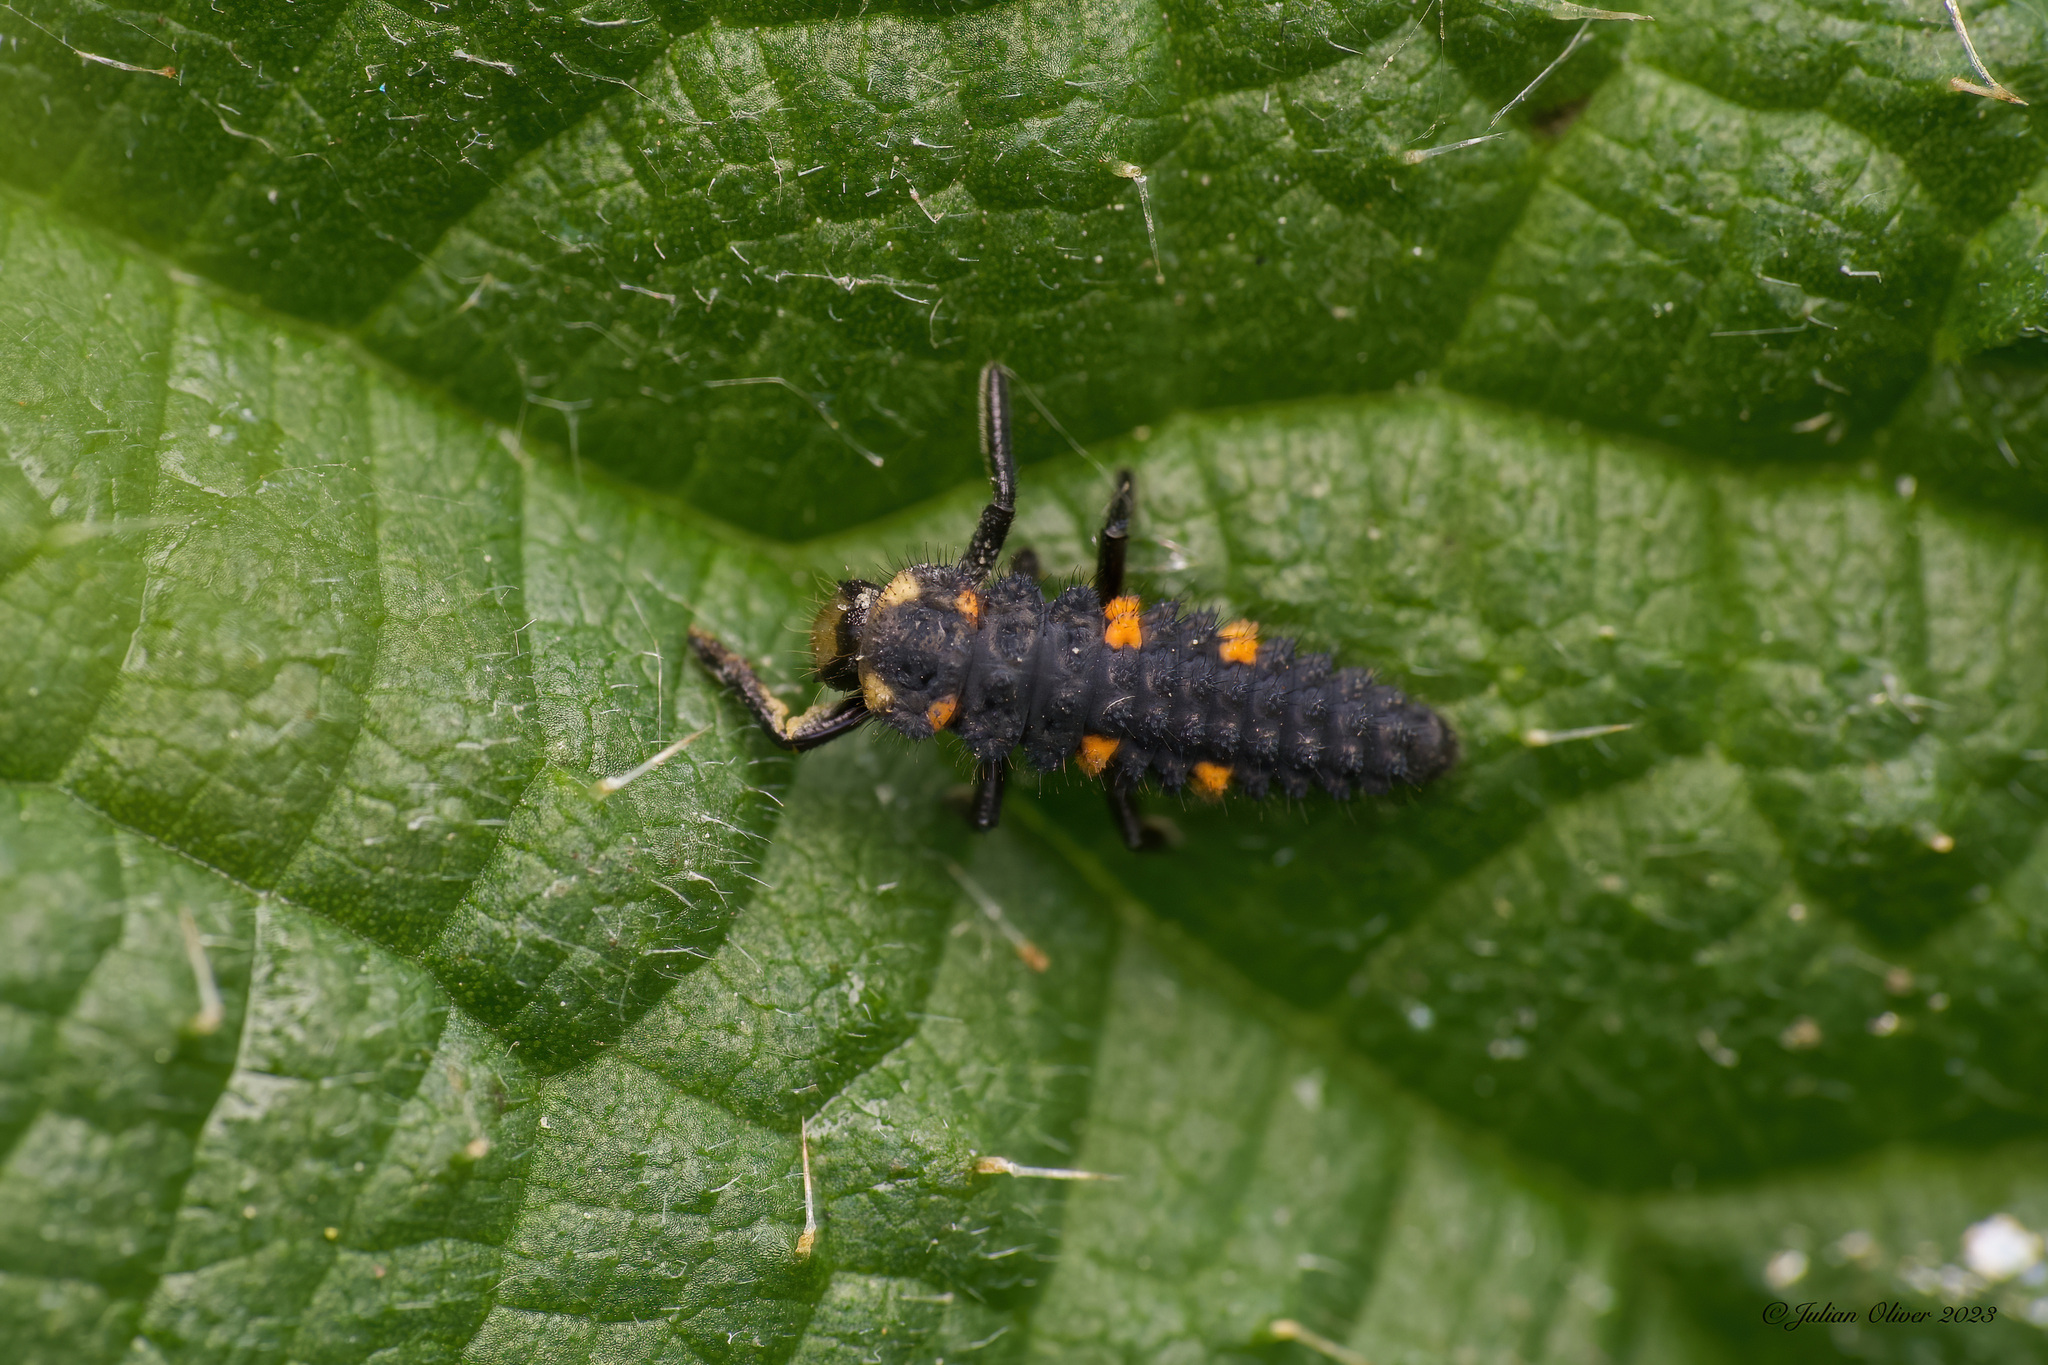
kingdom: Animalia
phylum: Arthropoda
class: Insecta
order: Coleoptera
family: Coccinellidae
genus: Coccinella
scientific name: Coccinella septempunctata
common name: Sevenspotted lady beetle
